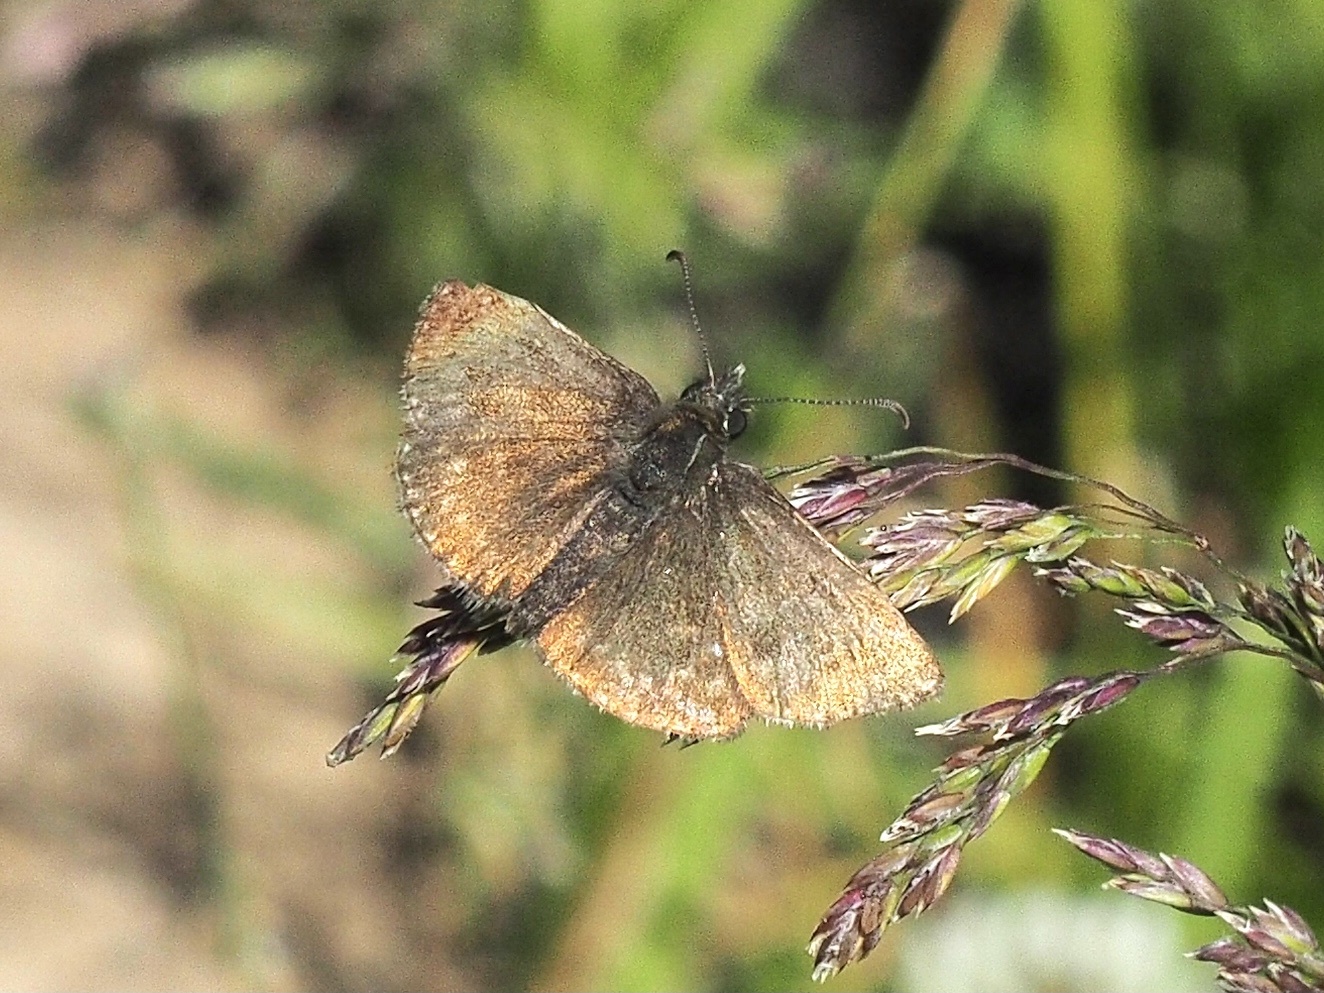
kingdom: Animalia
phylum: Arthropoda
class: Insecta
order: Lepidoptera
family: Hesperiidae
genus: Erynnis
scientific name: Erynnis tages
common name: Dingy skipper
